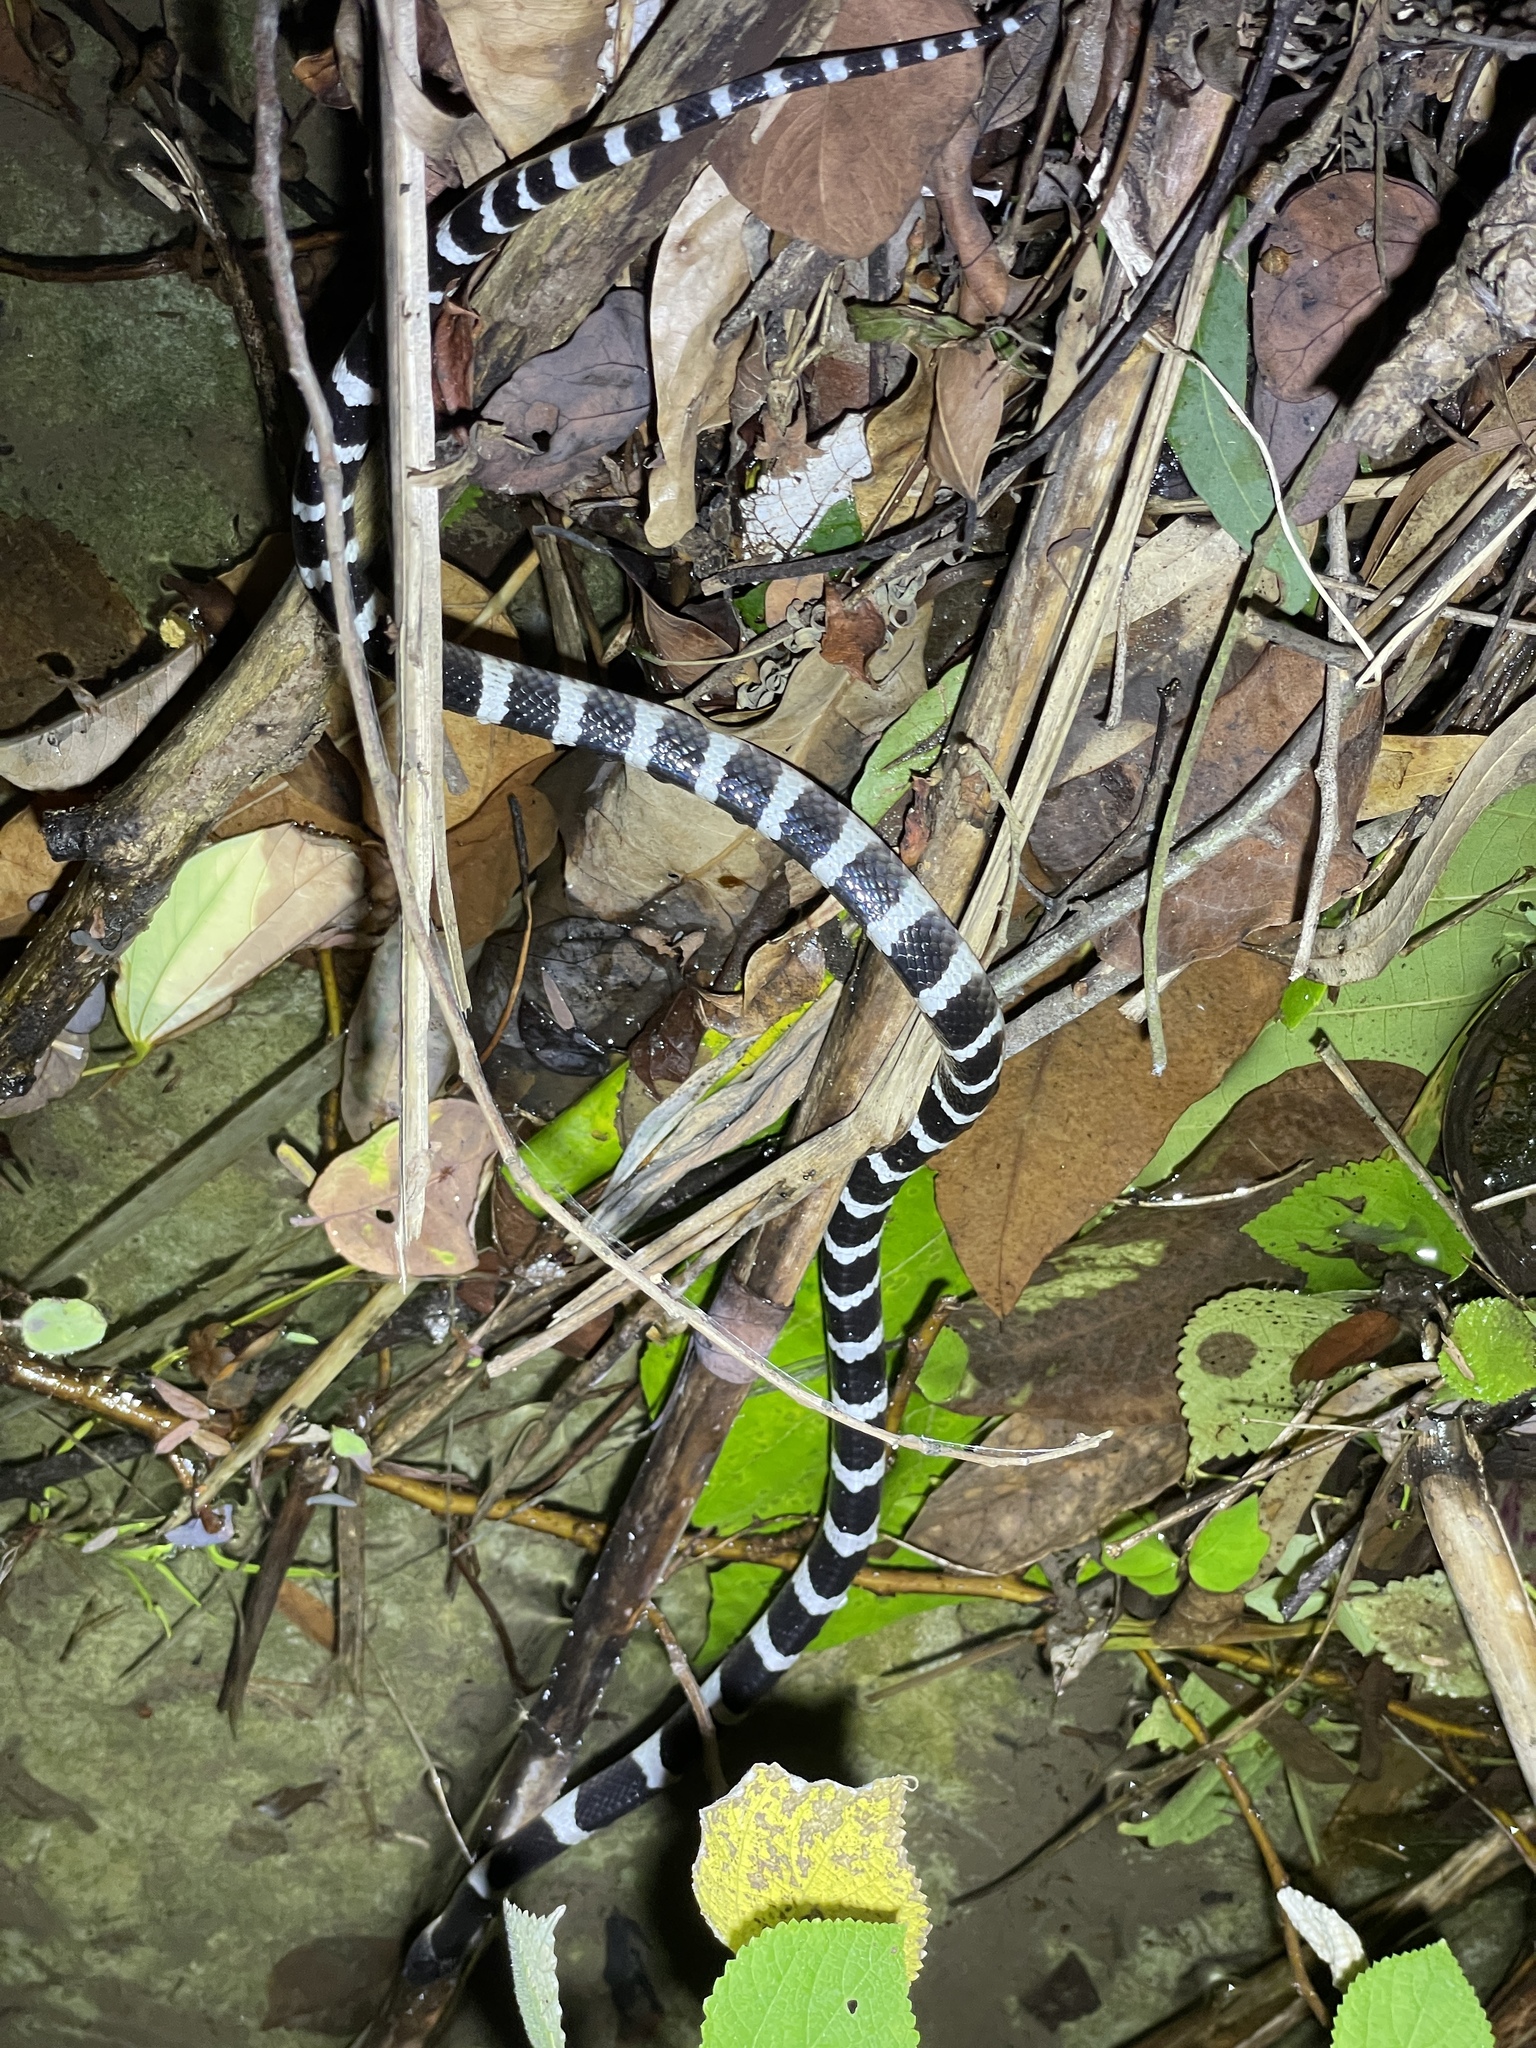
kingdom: Animalia
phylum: Chordata
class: Squamata
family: Elapidae
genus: Bungarus
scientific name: Bungarus multicinctus
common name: Many-banded krait
